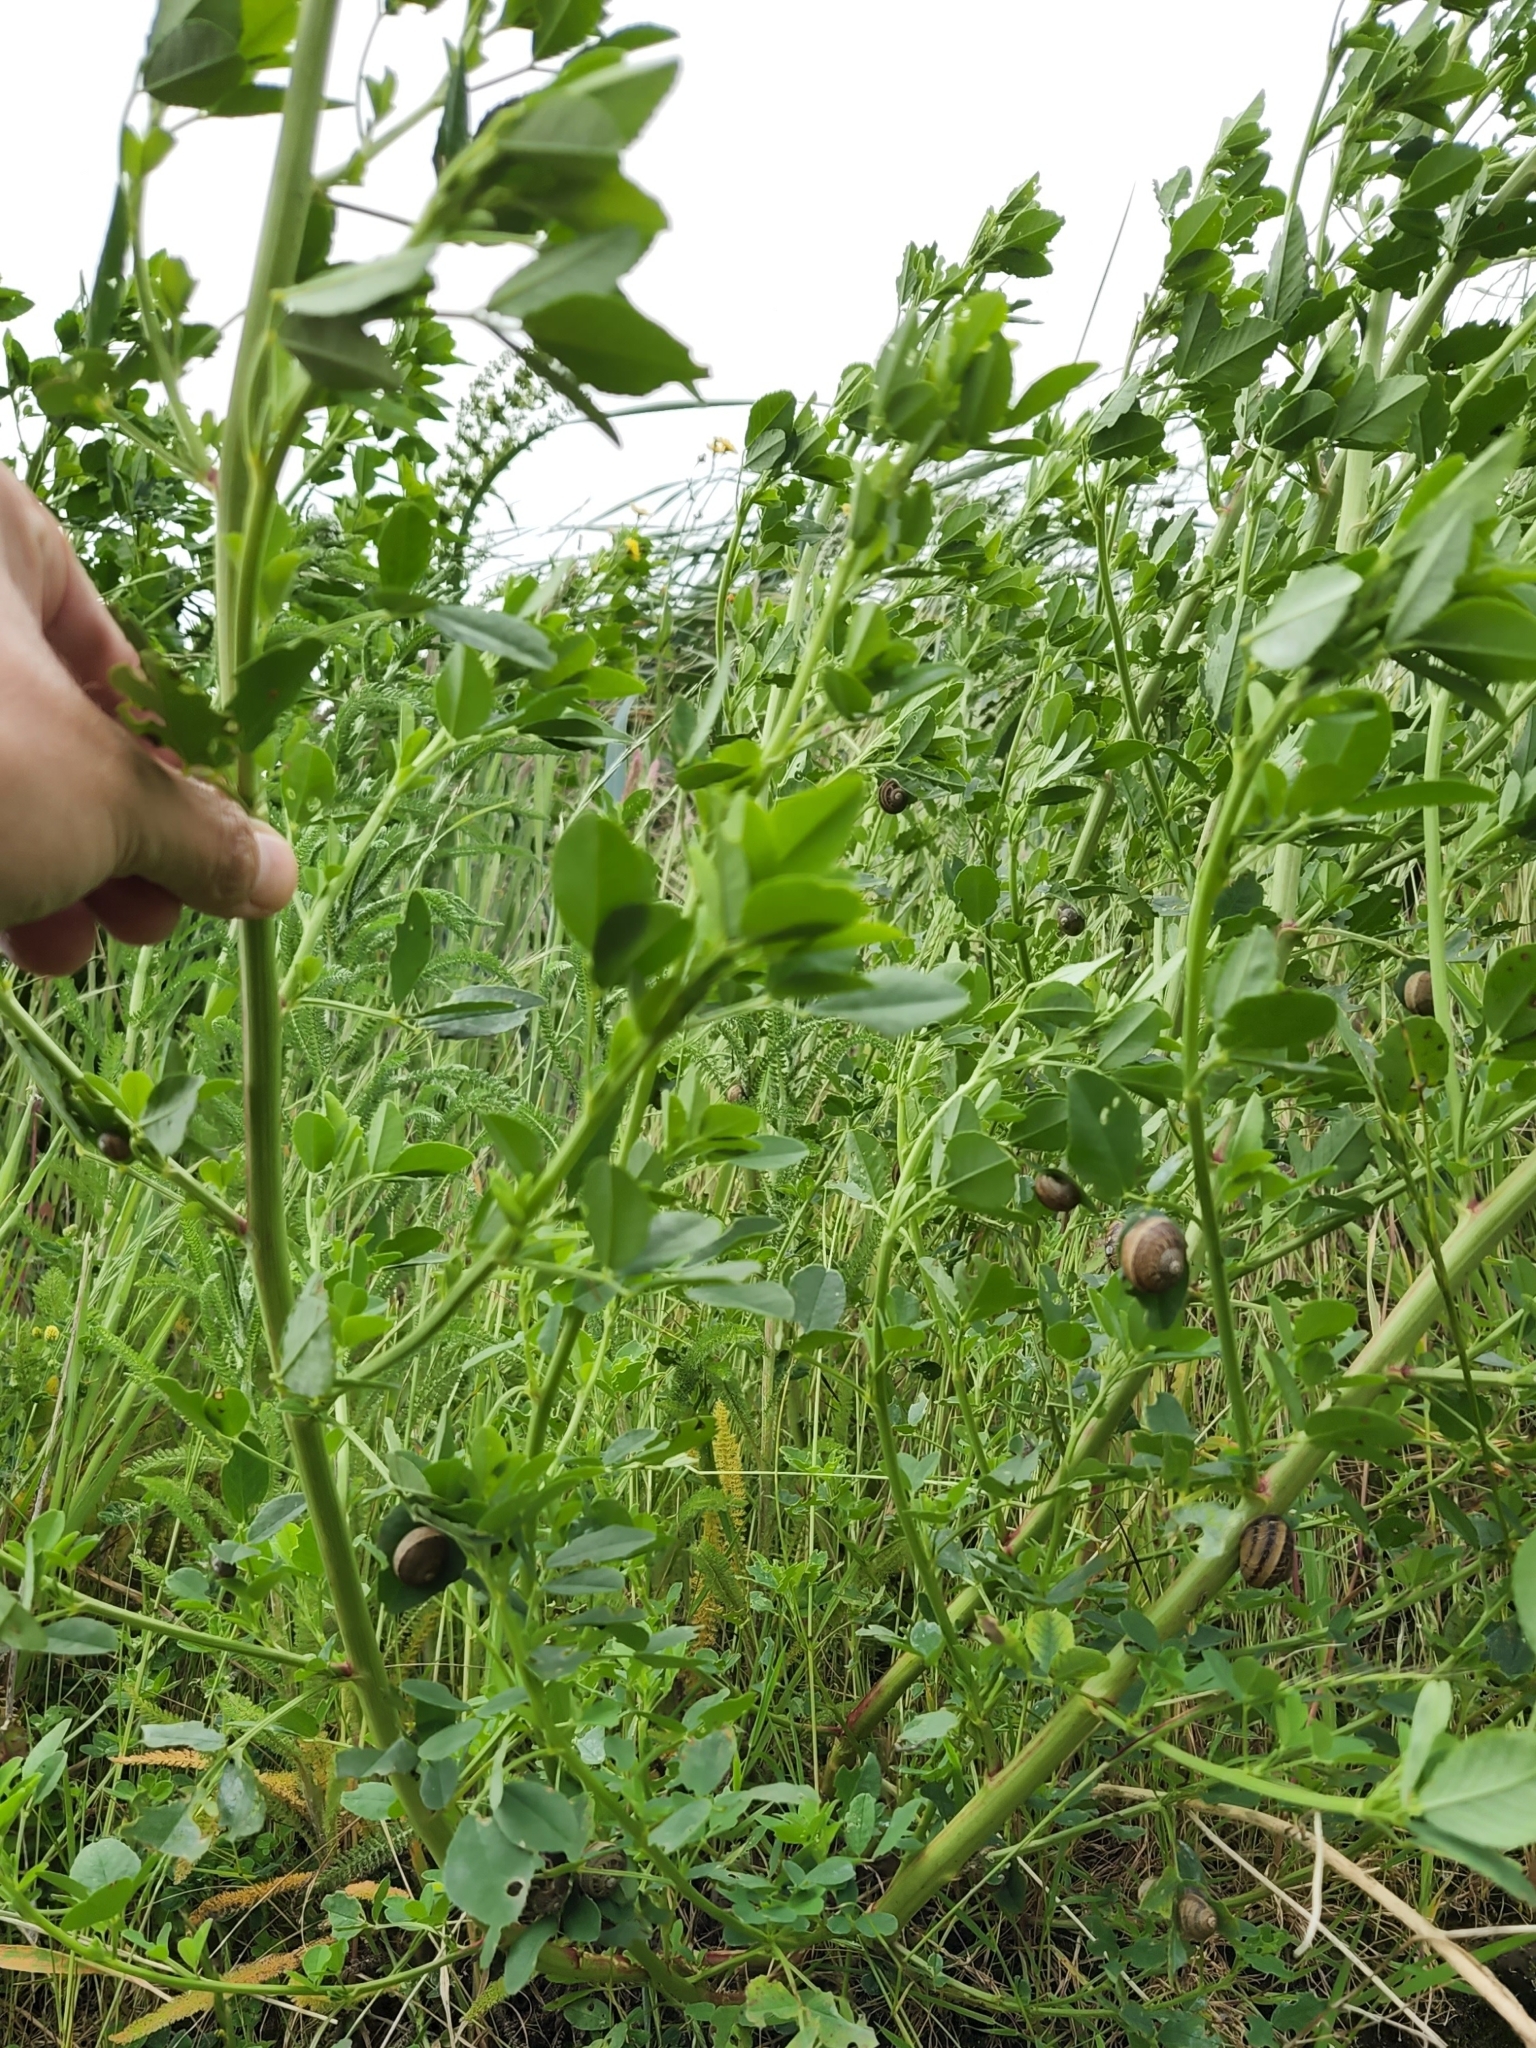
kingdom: Animalia
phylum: Mollusca
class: Gastropoda
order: Stylommatophora
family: Helicidae
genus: Cornu
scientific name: Cornu aspersum
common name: Brown garden snail
